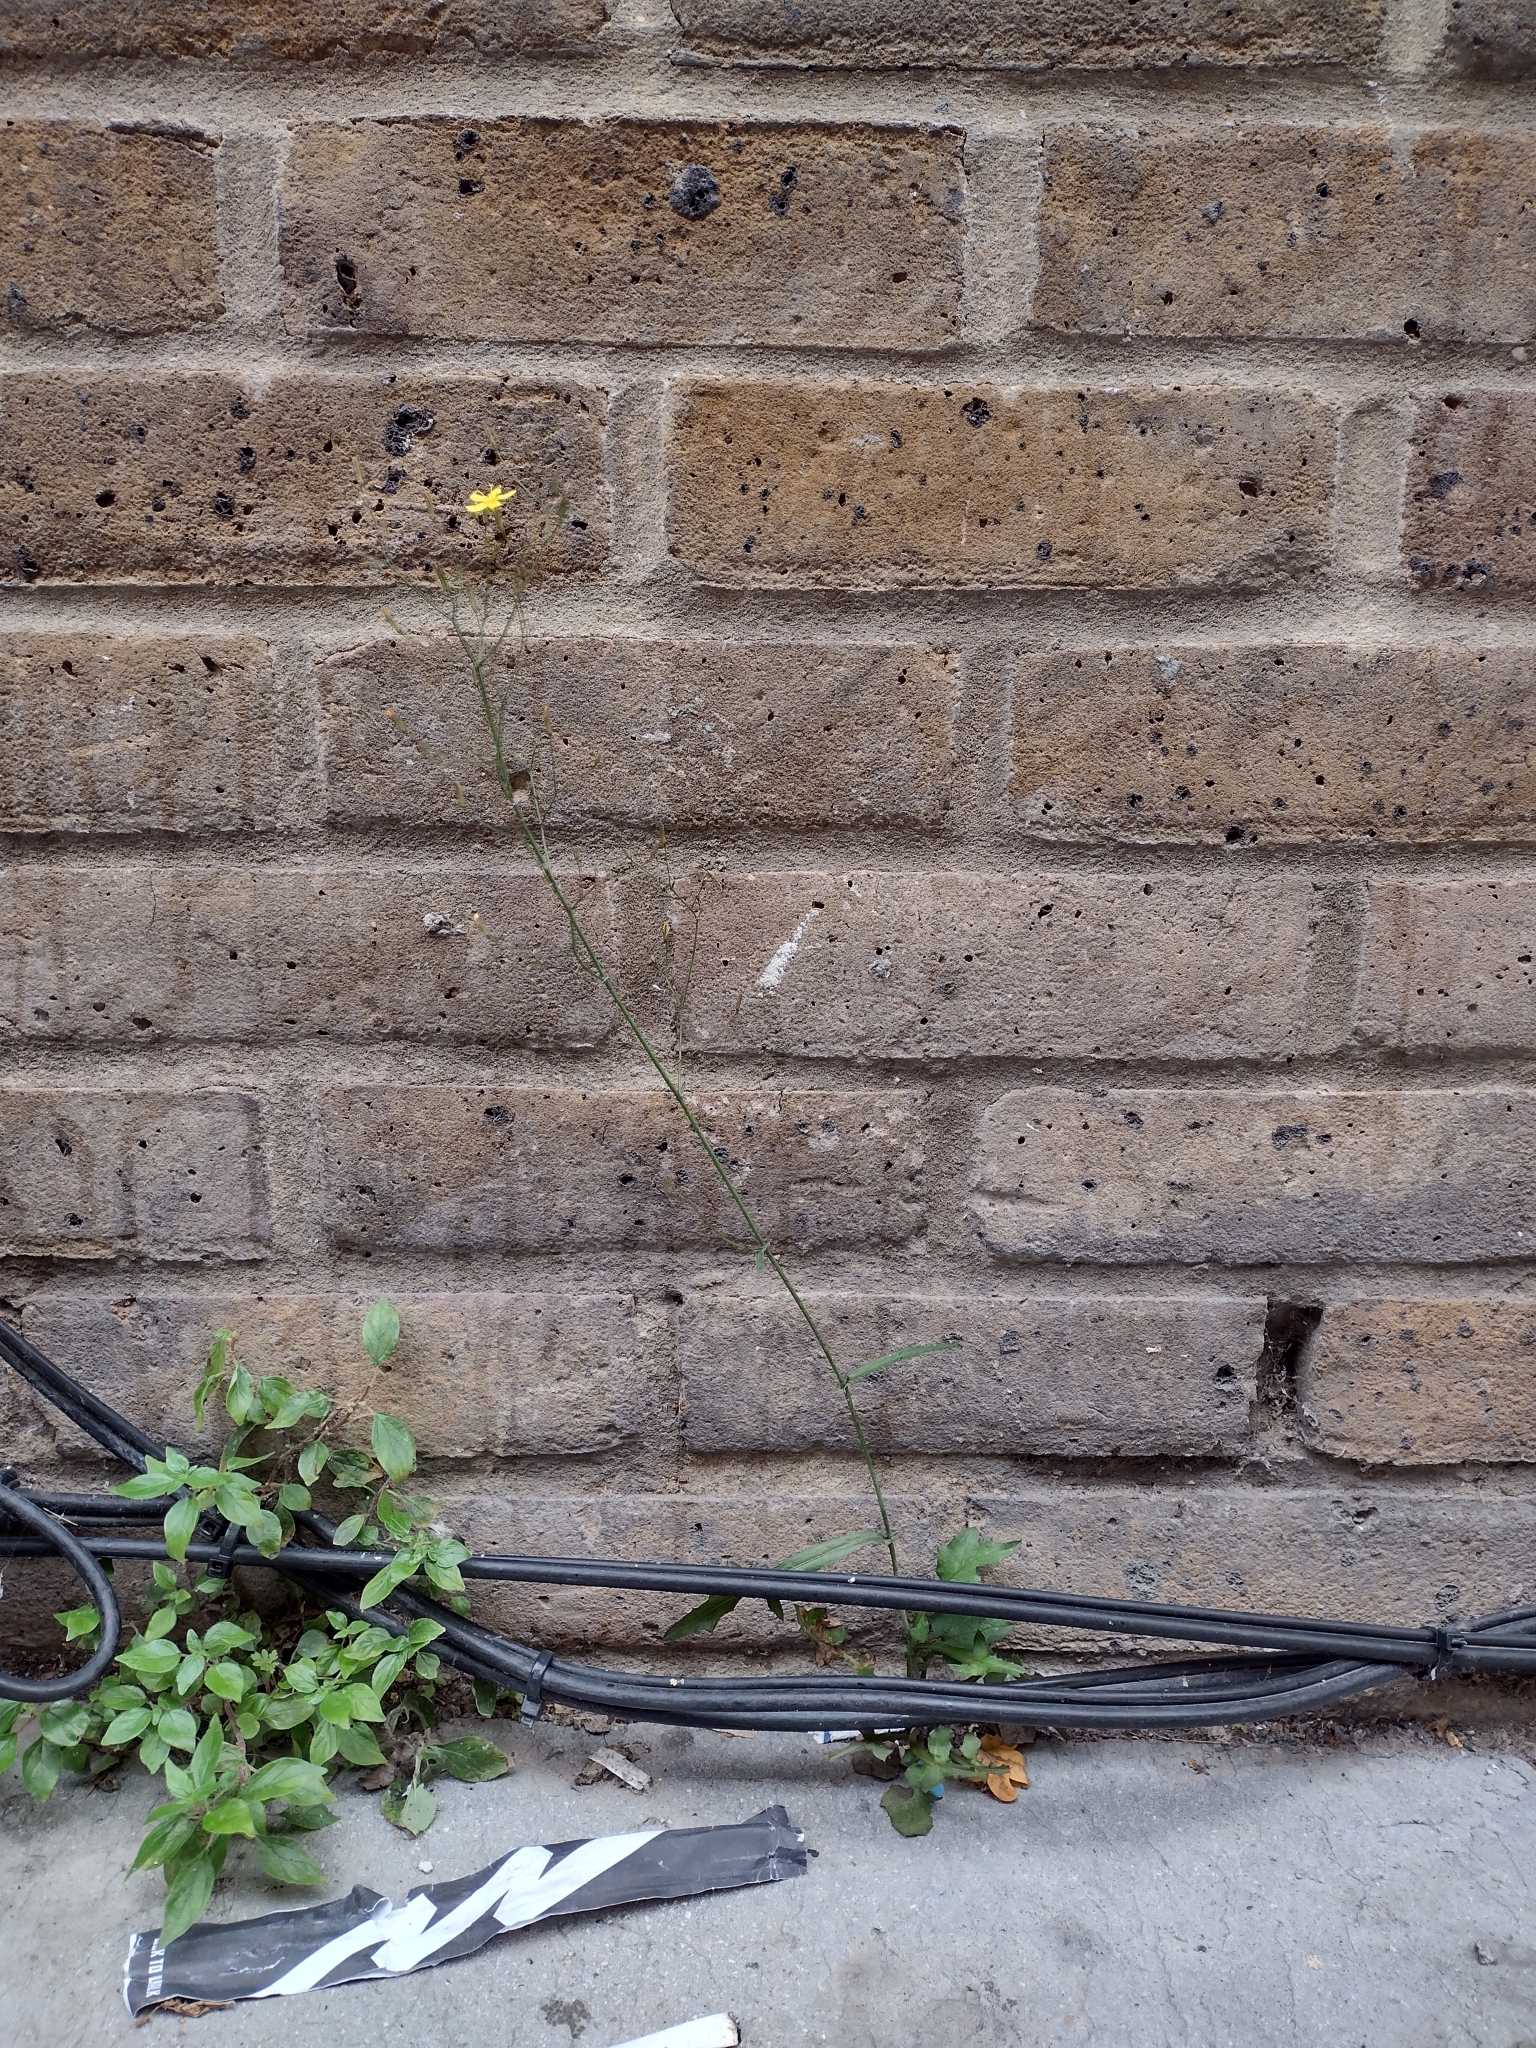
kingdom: Plantae
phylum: Tracheophyta
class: Magnoliopsida
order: Asterales
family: Asteraceae
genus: Mycelis
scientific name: Mycelis muralis
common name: Wall lettuce
